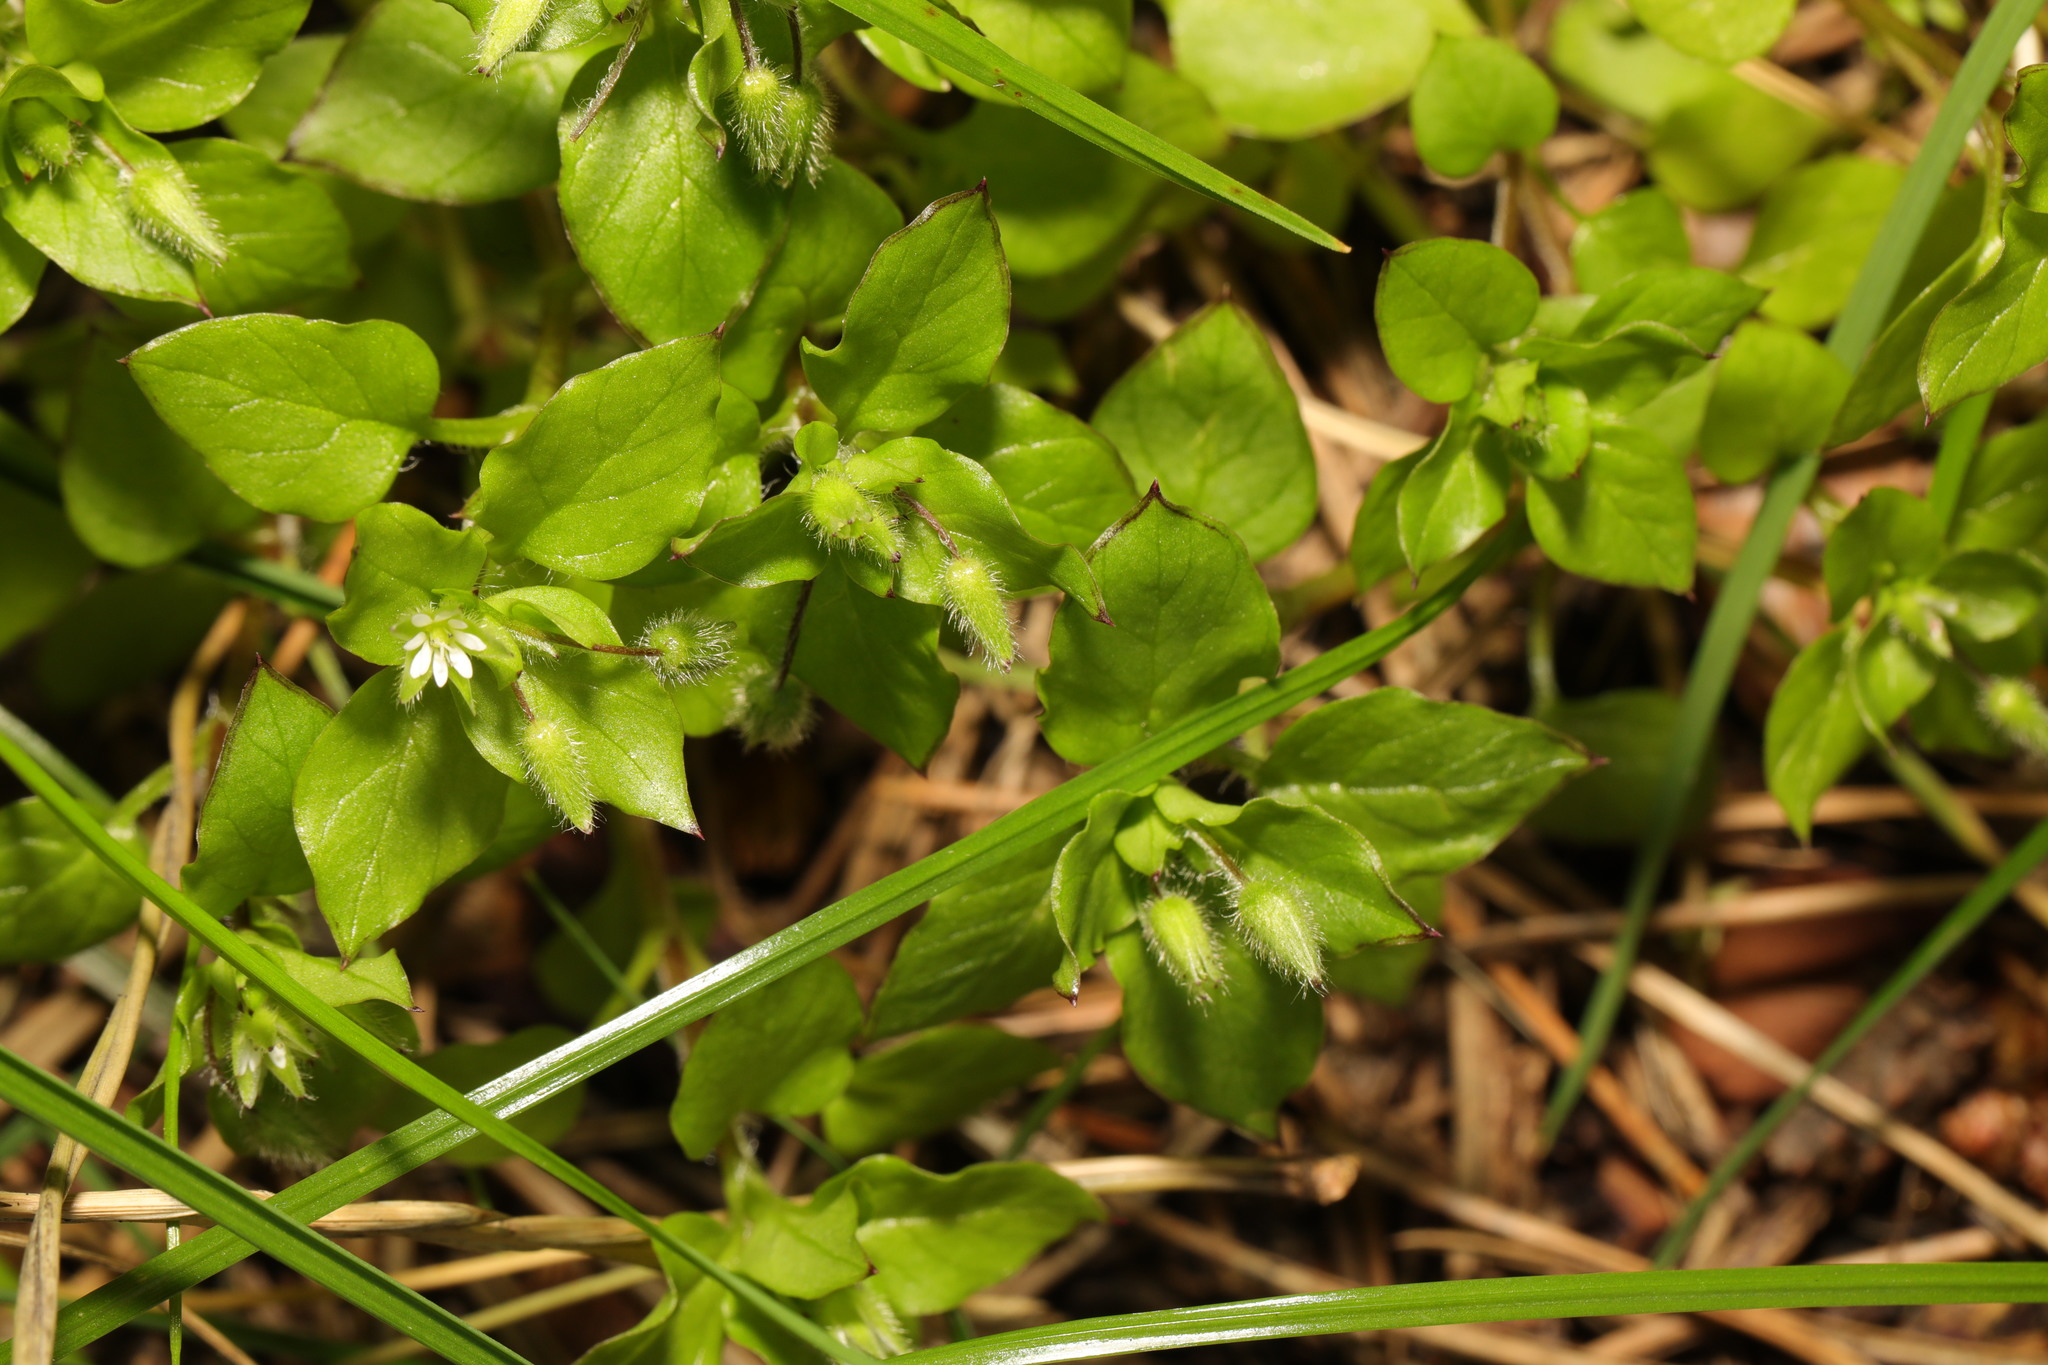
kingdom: Plantae
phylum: Tracheophyta
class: Magnoliopsida
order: Caryophyllales
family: Caryophyllaceae
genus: Stellaria
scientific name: Stellaria media
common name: Common chickweed
